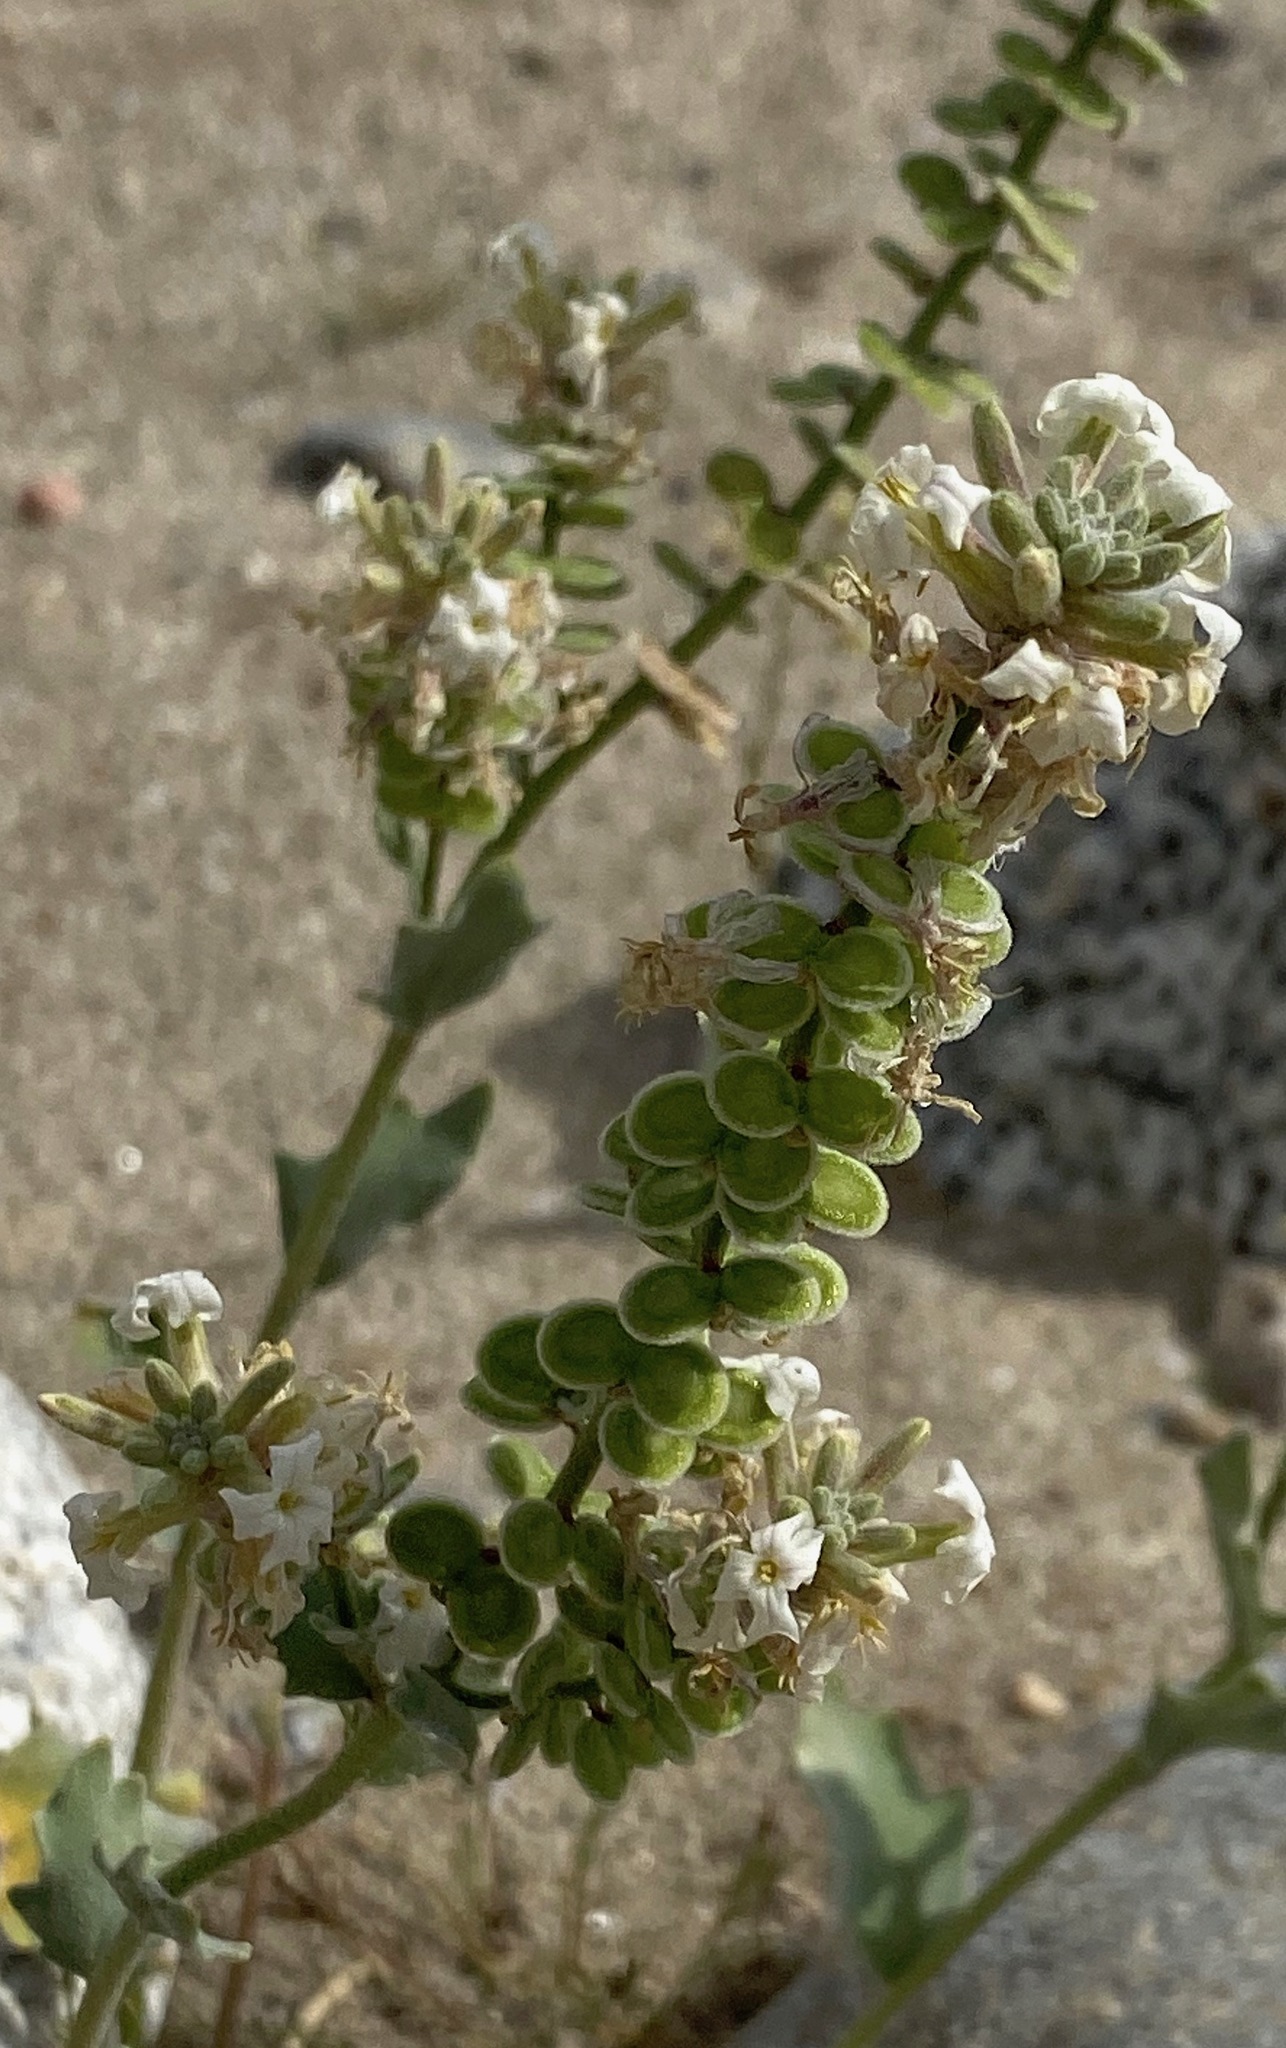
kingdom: Plantae
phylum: Tracheophyta
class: Magnoliopsida
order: Brassicales
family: Brassicaceae
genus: Dithyrea
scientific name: Dithyrea californica
